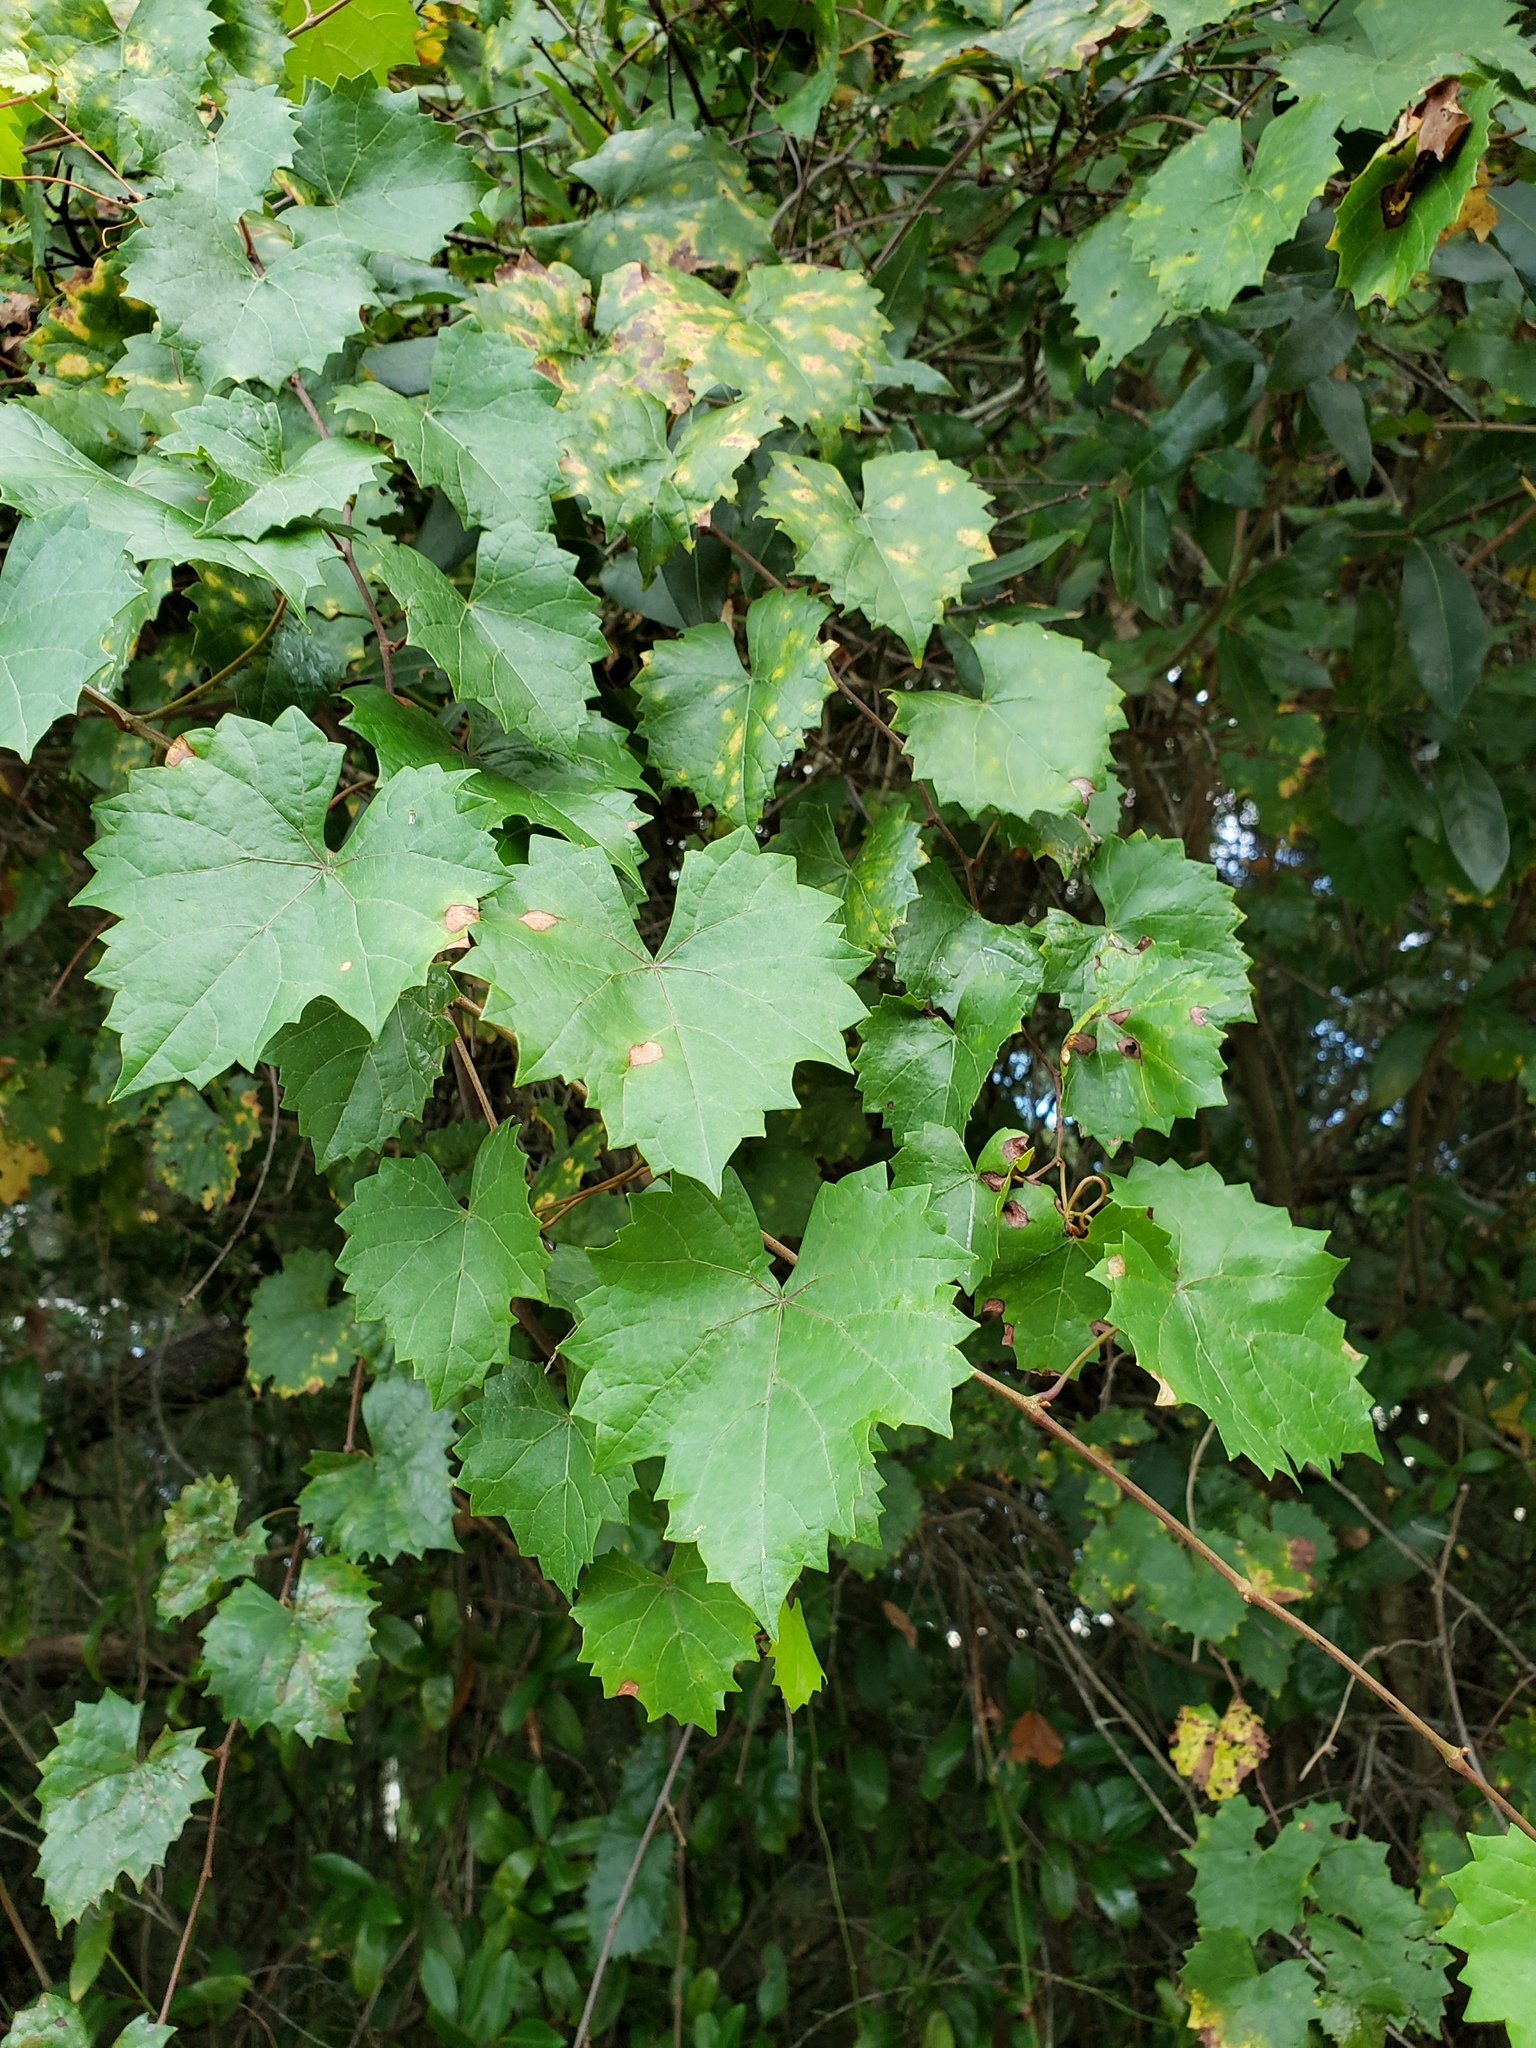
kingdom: Plantae
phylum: Tracheophyta
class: Magnoliopsida
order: Vitales
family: Vitaceae
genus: Vitis
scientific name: Vitis rotundifolia
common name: Muscadine grape
